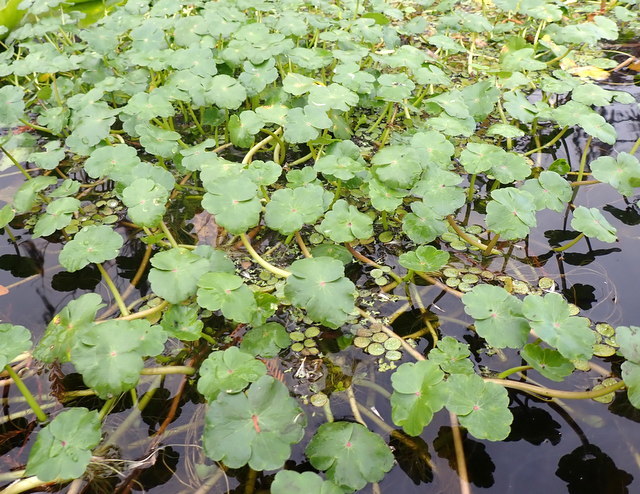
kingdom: Plantae
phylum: Tracheophyta
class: Magnoliopsida
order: Apiales
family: Araliaceae
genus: Hydrocotyle
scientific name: Hydrocotyle ranunculoides
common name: Floating pennywort
